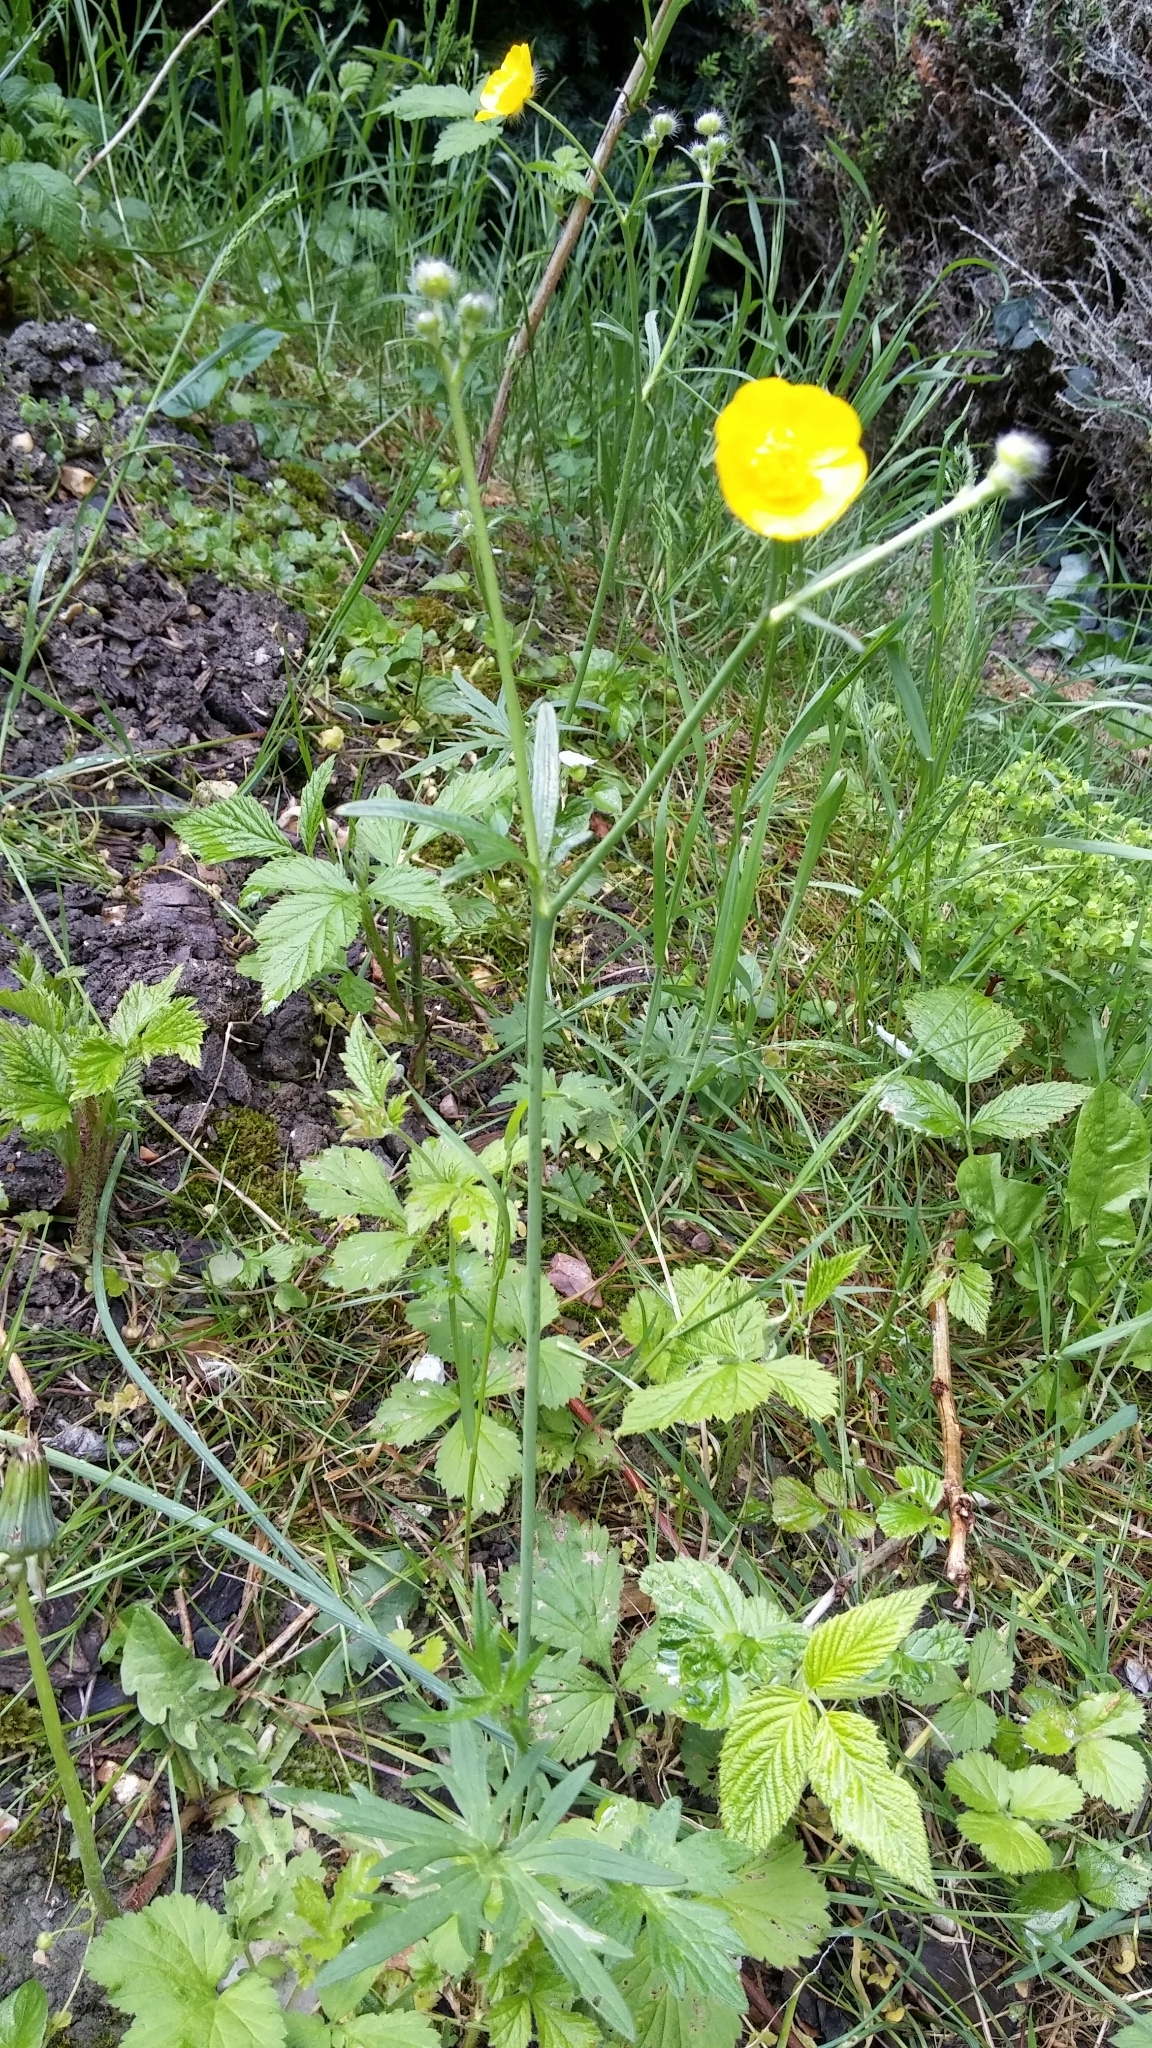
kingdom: Plantae
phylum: Tracheophyta
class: Magnoliopsida
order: Ranunculales
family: Ranunculaceae
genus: Ranunculus
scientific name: Ranunculus acris
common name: Meadow buttercup
